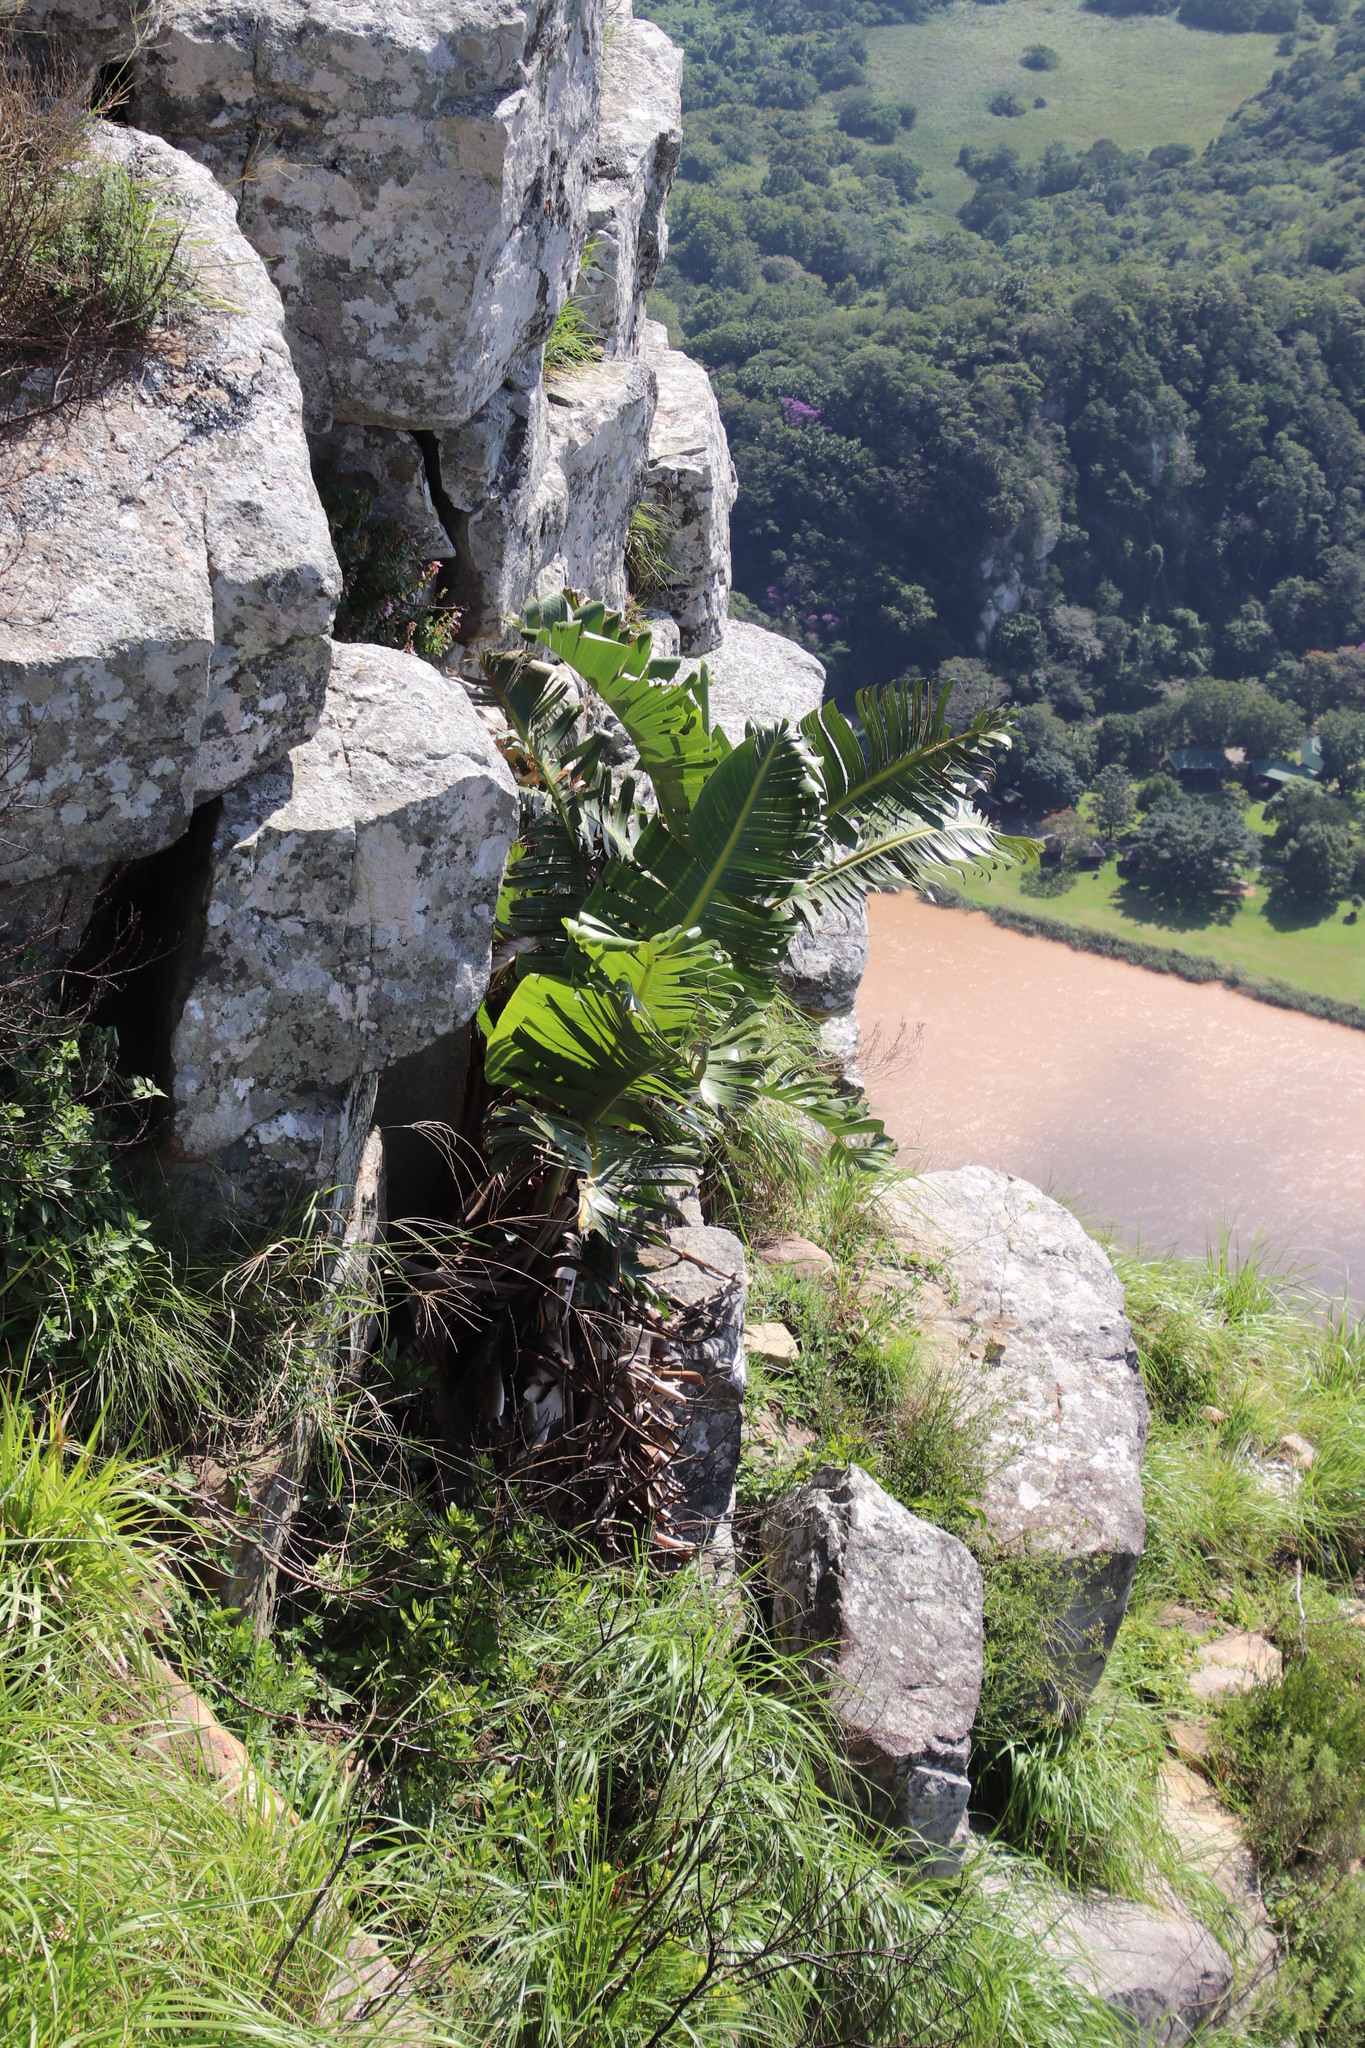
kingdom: Plantae
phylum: Tracheophyta
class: Liliopsida
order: Zingiberales
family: Strelitziaceae
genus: Strelitzia
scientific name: Strelitzia nicolai
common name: Bird-of-paradise tree
